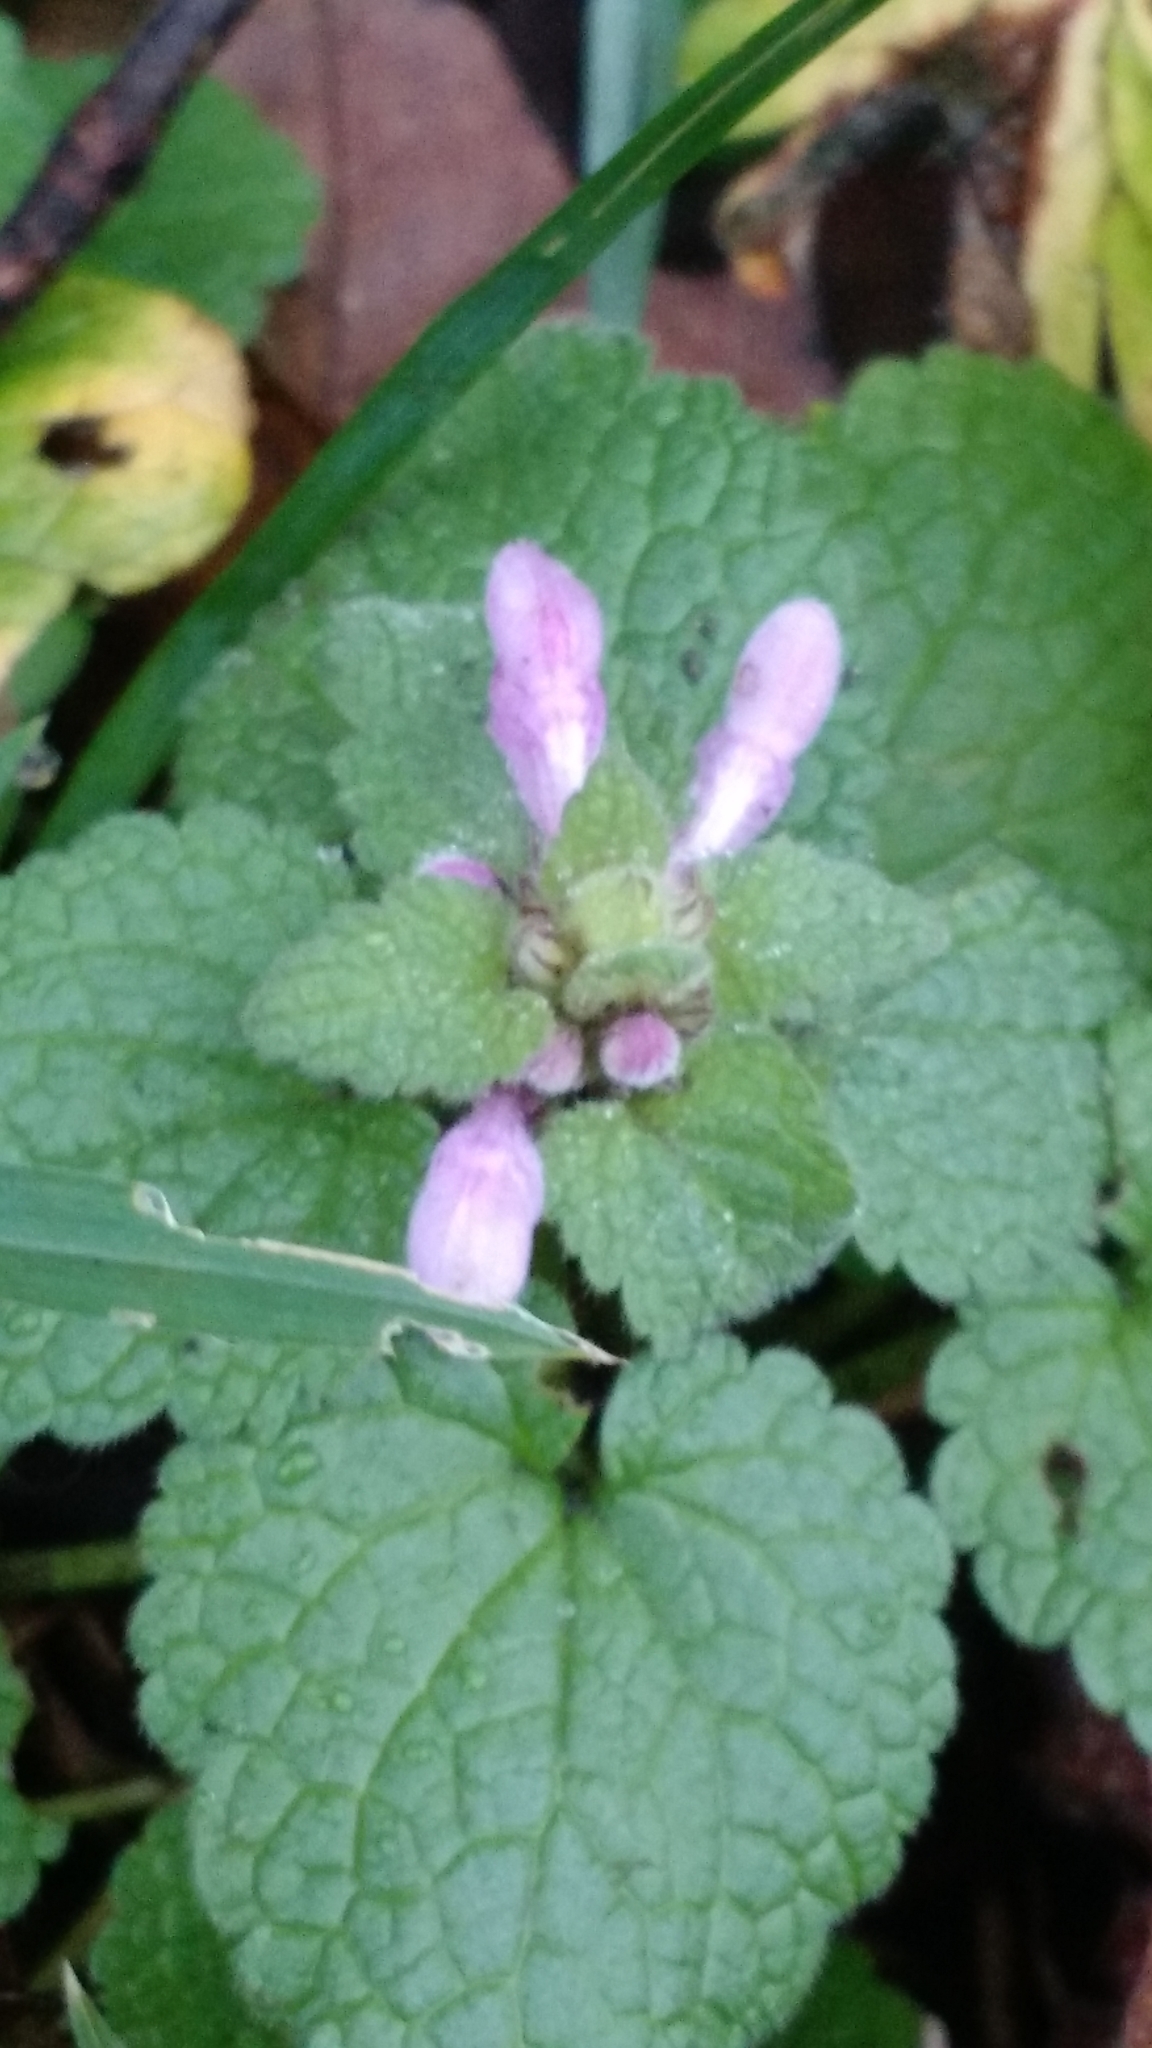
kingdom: Plantae
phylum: Tracheophyta
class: Magnoliopsida
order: Lamiales
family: Lamiaceae
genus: Lamium
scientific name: Lamium purpureum
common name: Red dead-nettle
